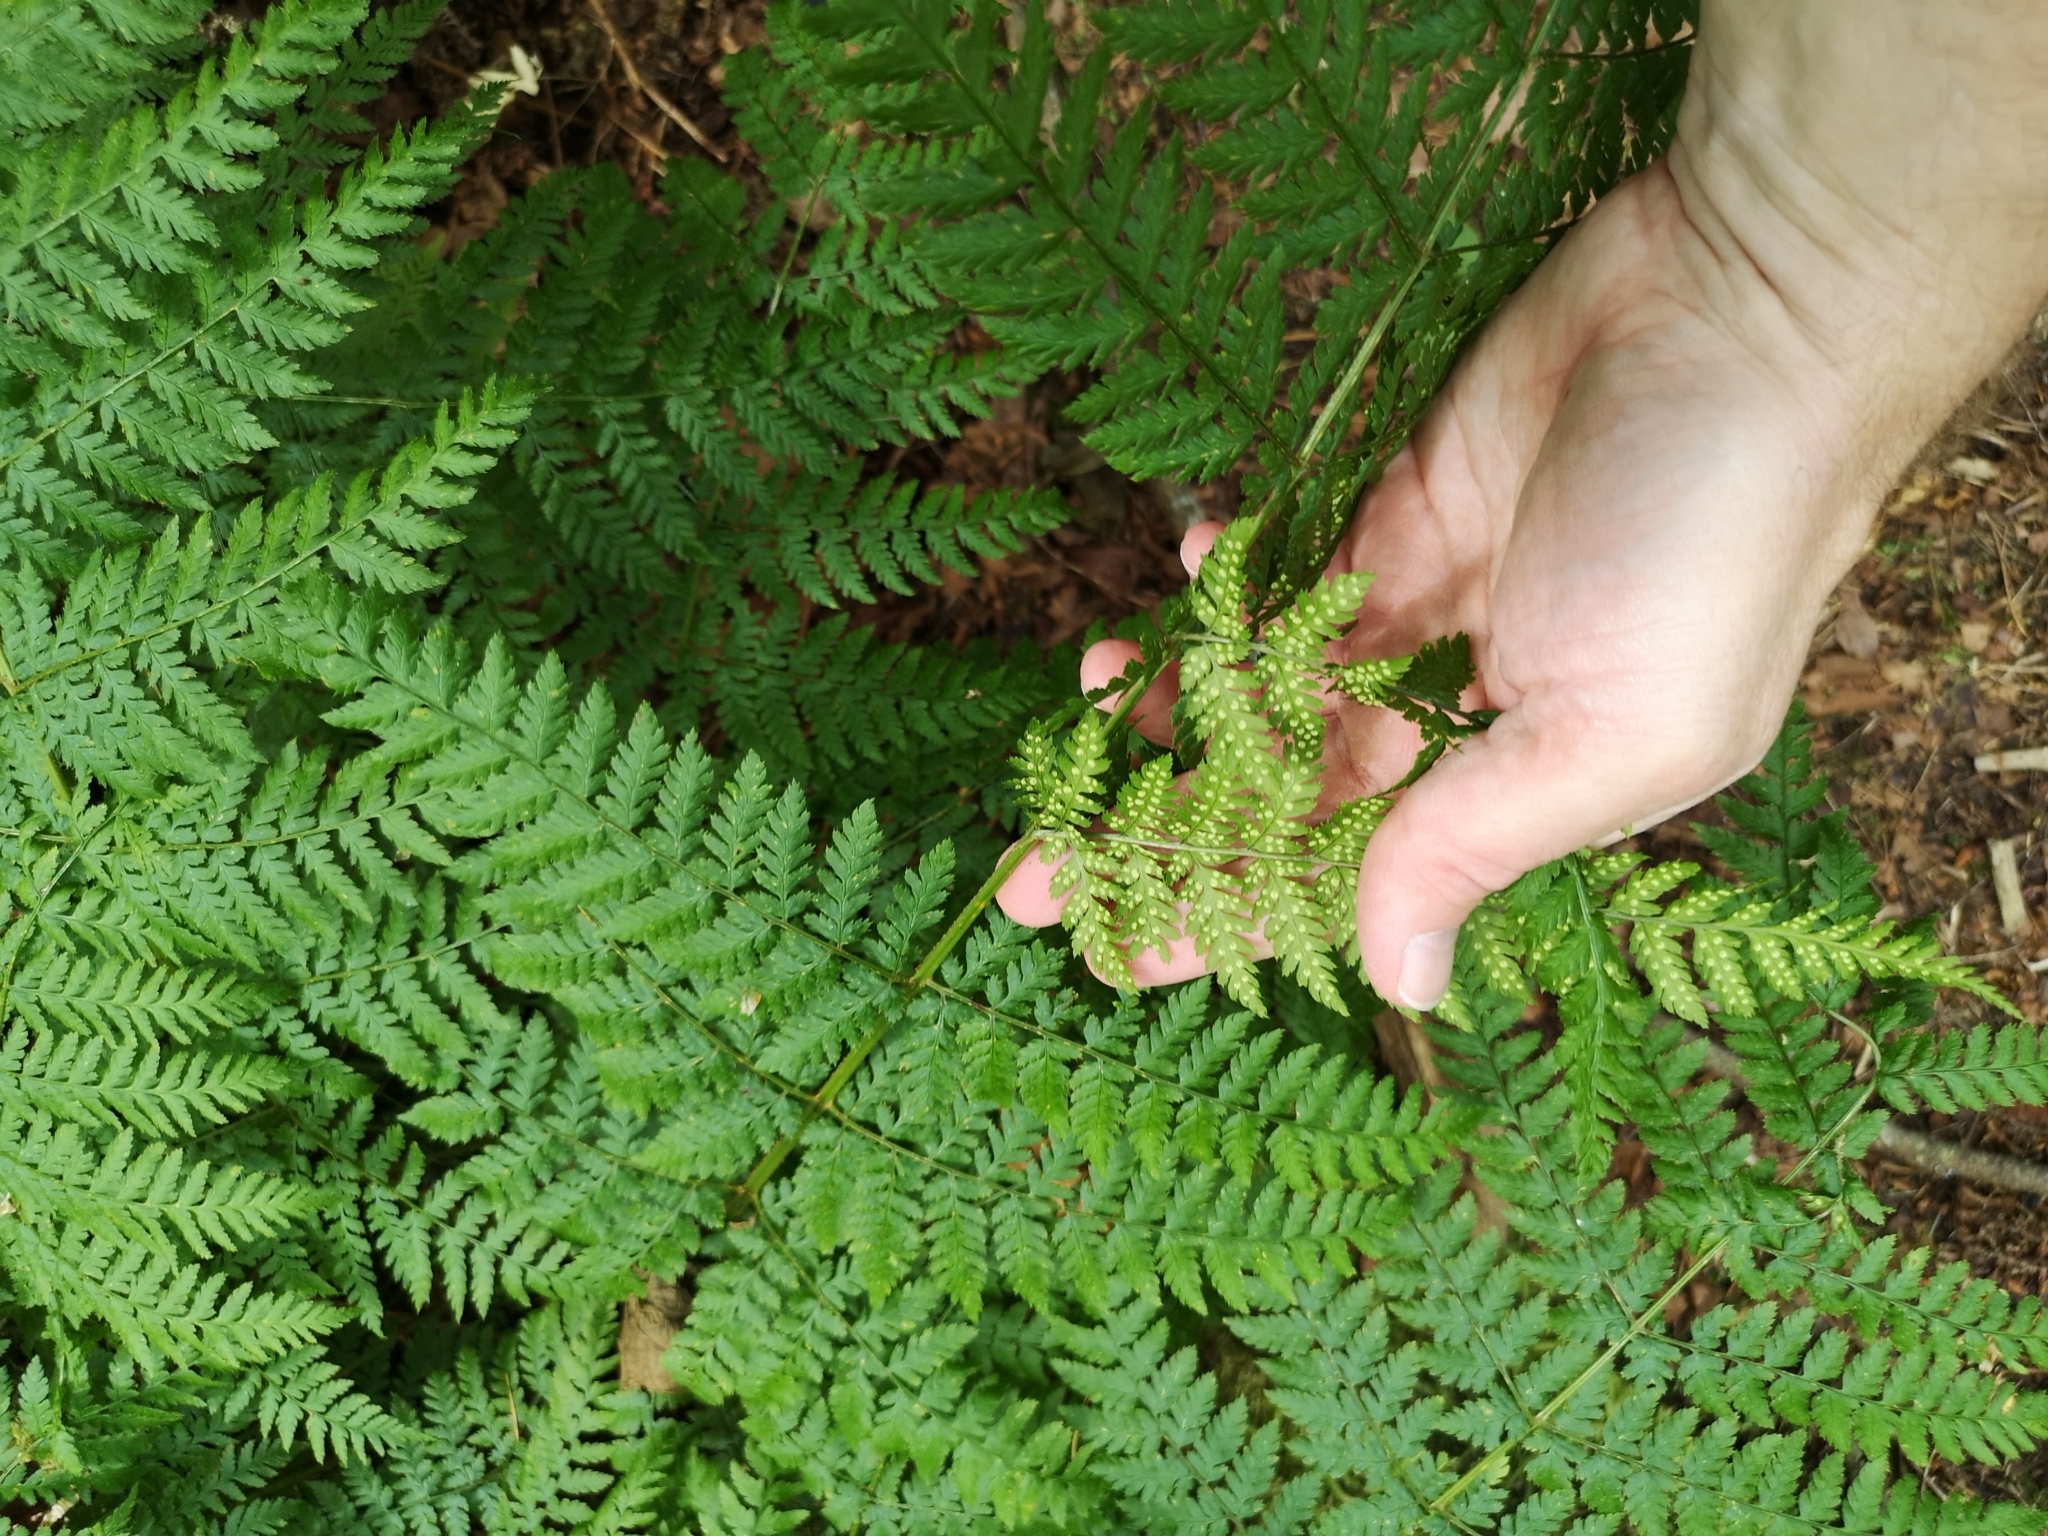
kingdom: Plantae
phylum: Tracheophyta
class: Polypodiopsida
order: Polypodiales
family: Dryopteridaceae
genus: Dryopteris
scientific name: Dryopteris expansa
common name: Northern buckler fern
